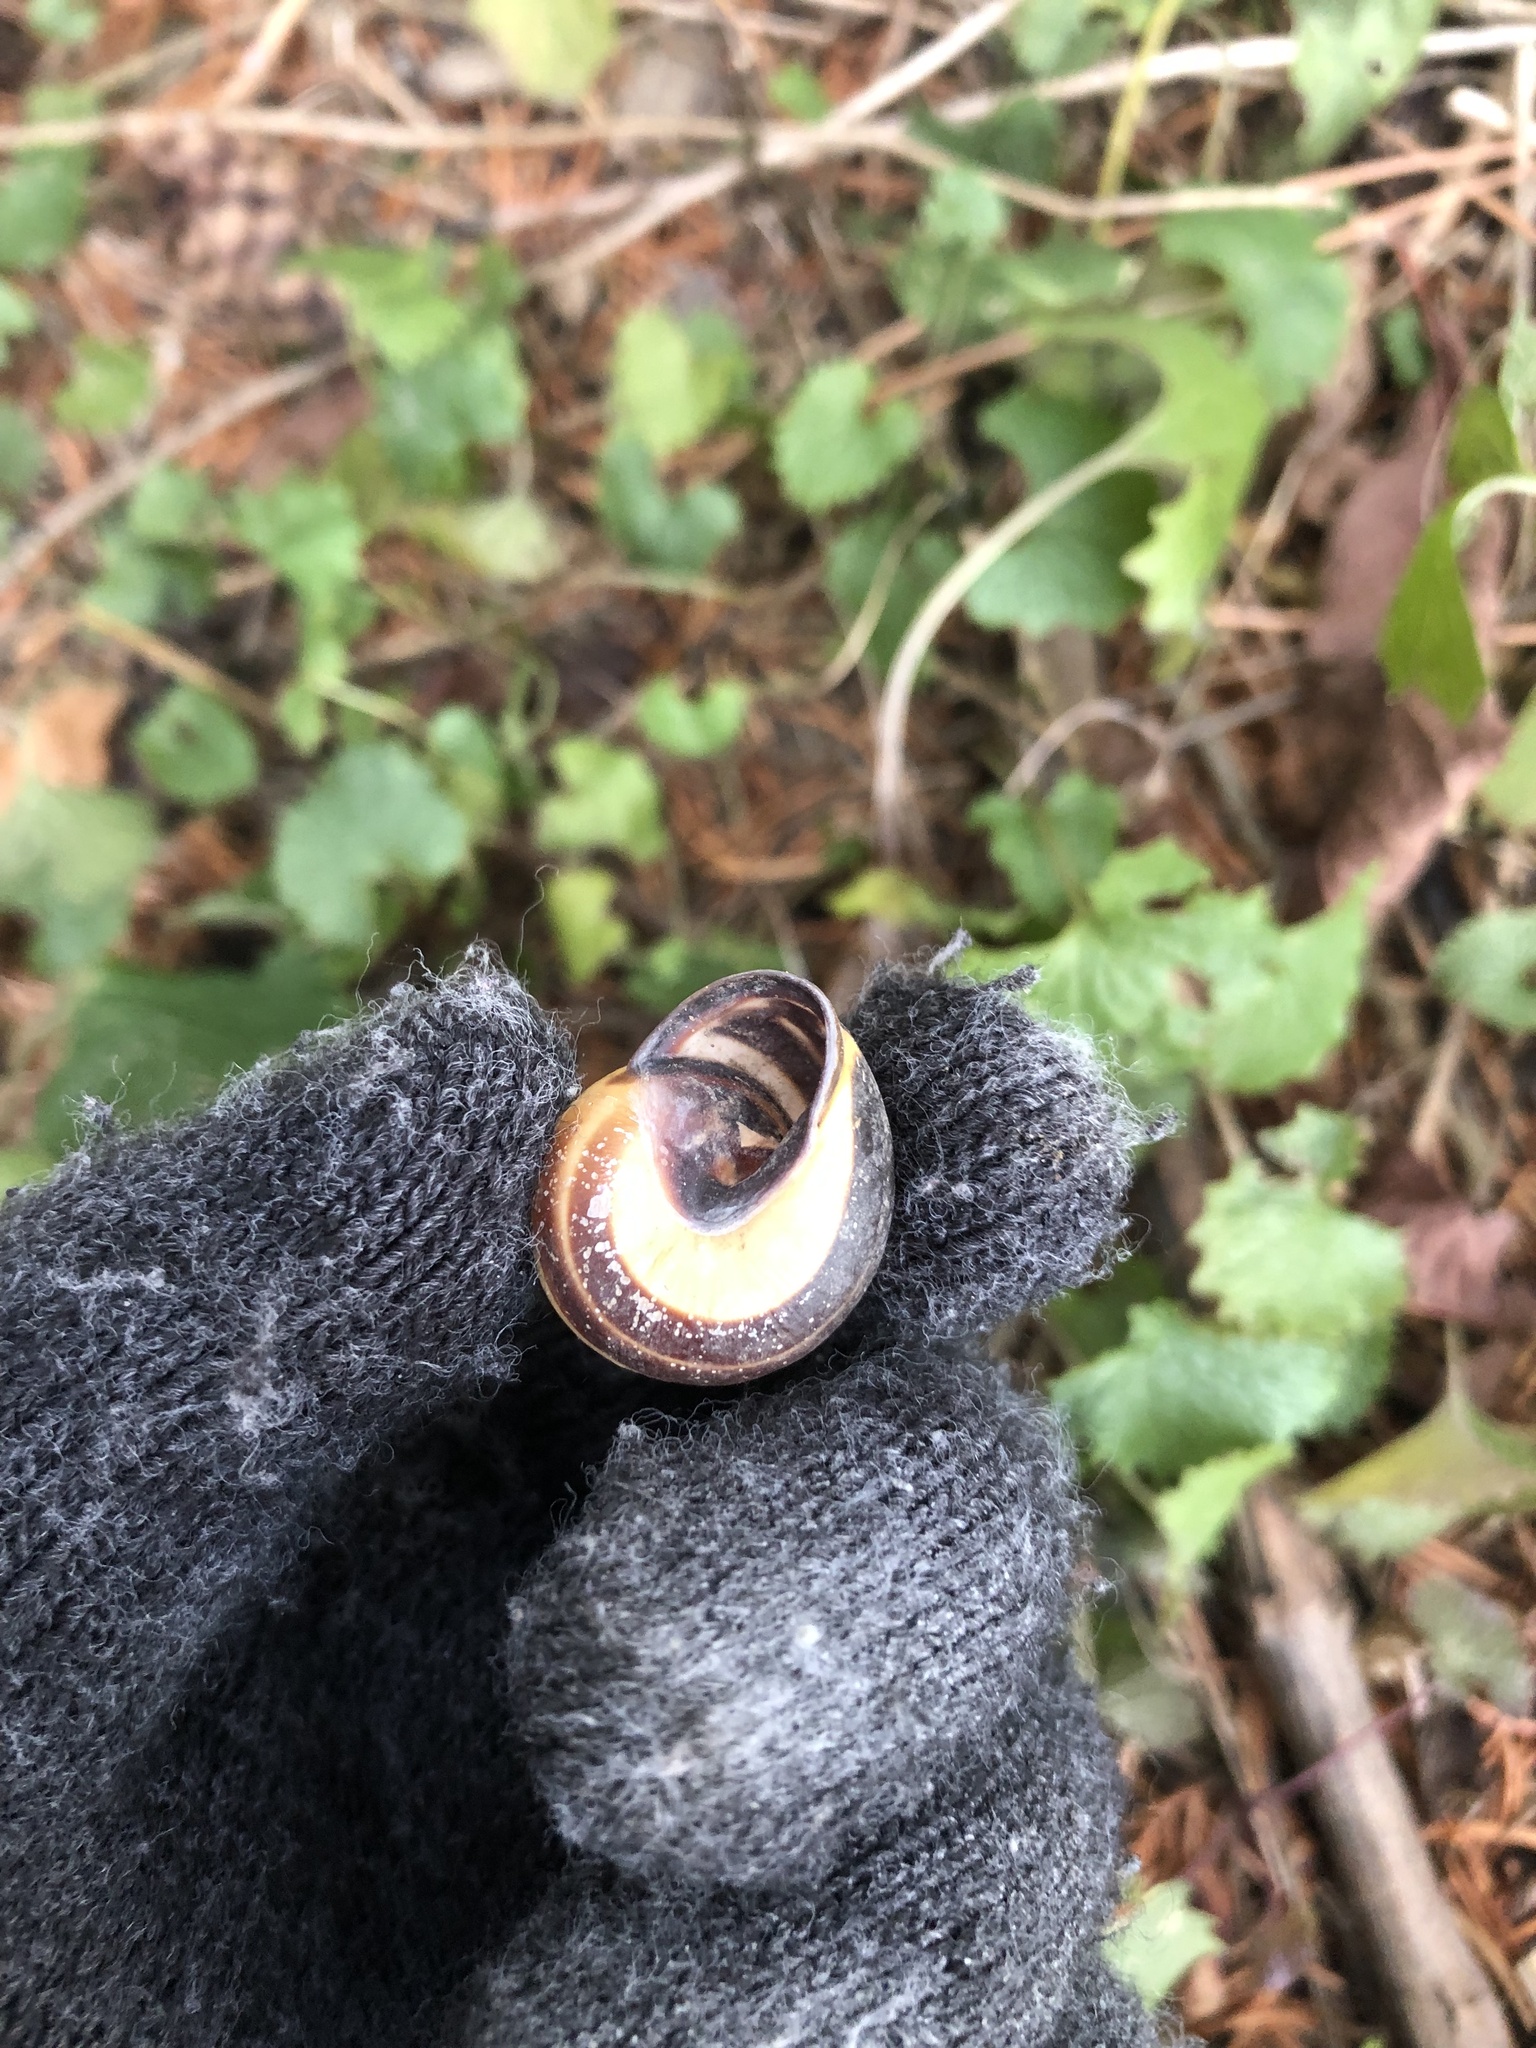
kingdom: Animalia
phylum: Mollusca
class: Gastropoda
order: Stylommatophora
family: Helicidae
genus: Cepaea
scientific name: Cepaea nemoralis
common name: Grovesnail
